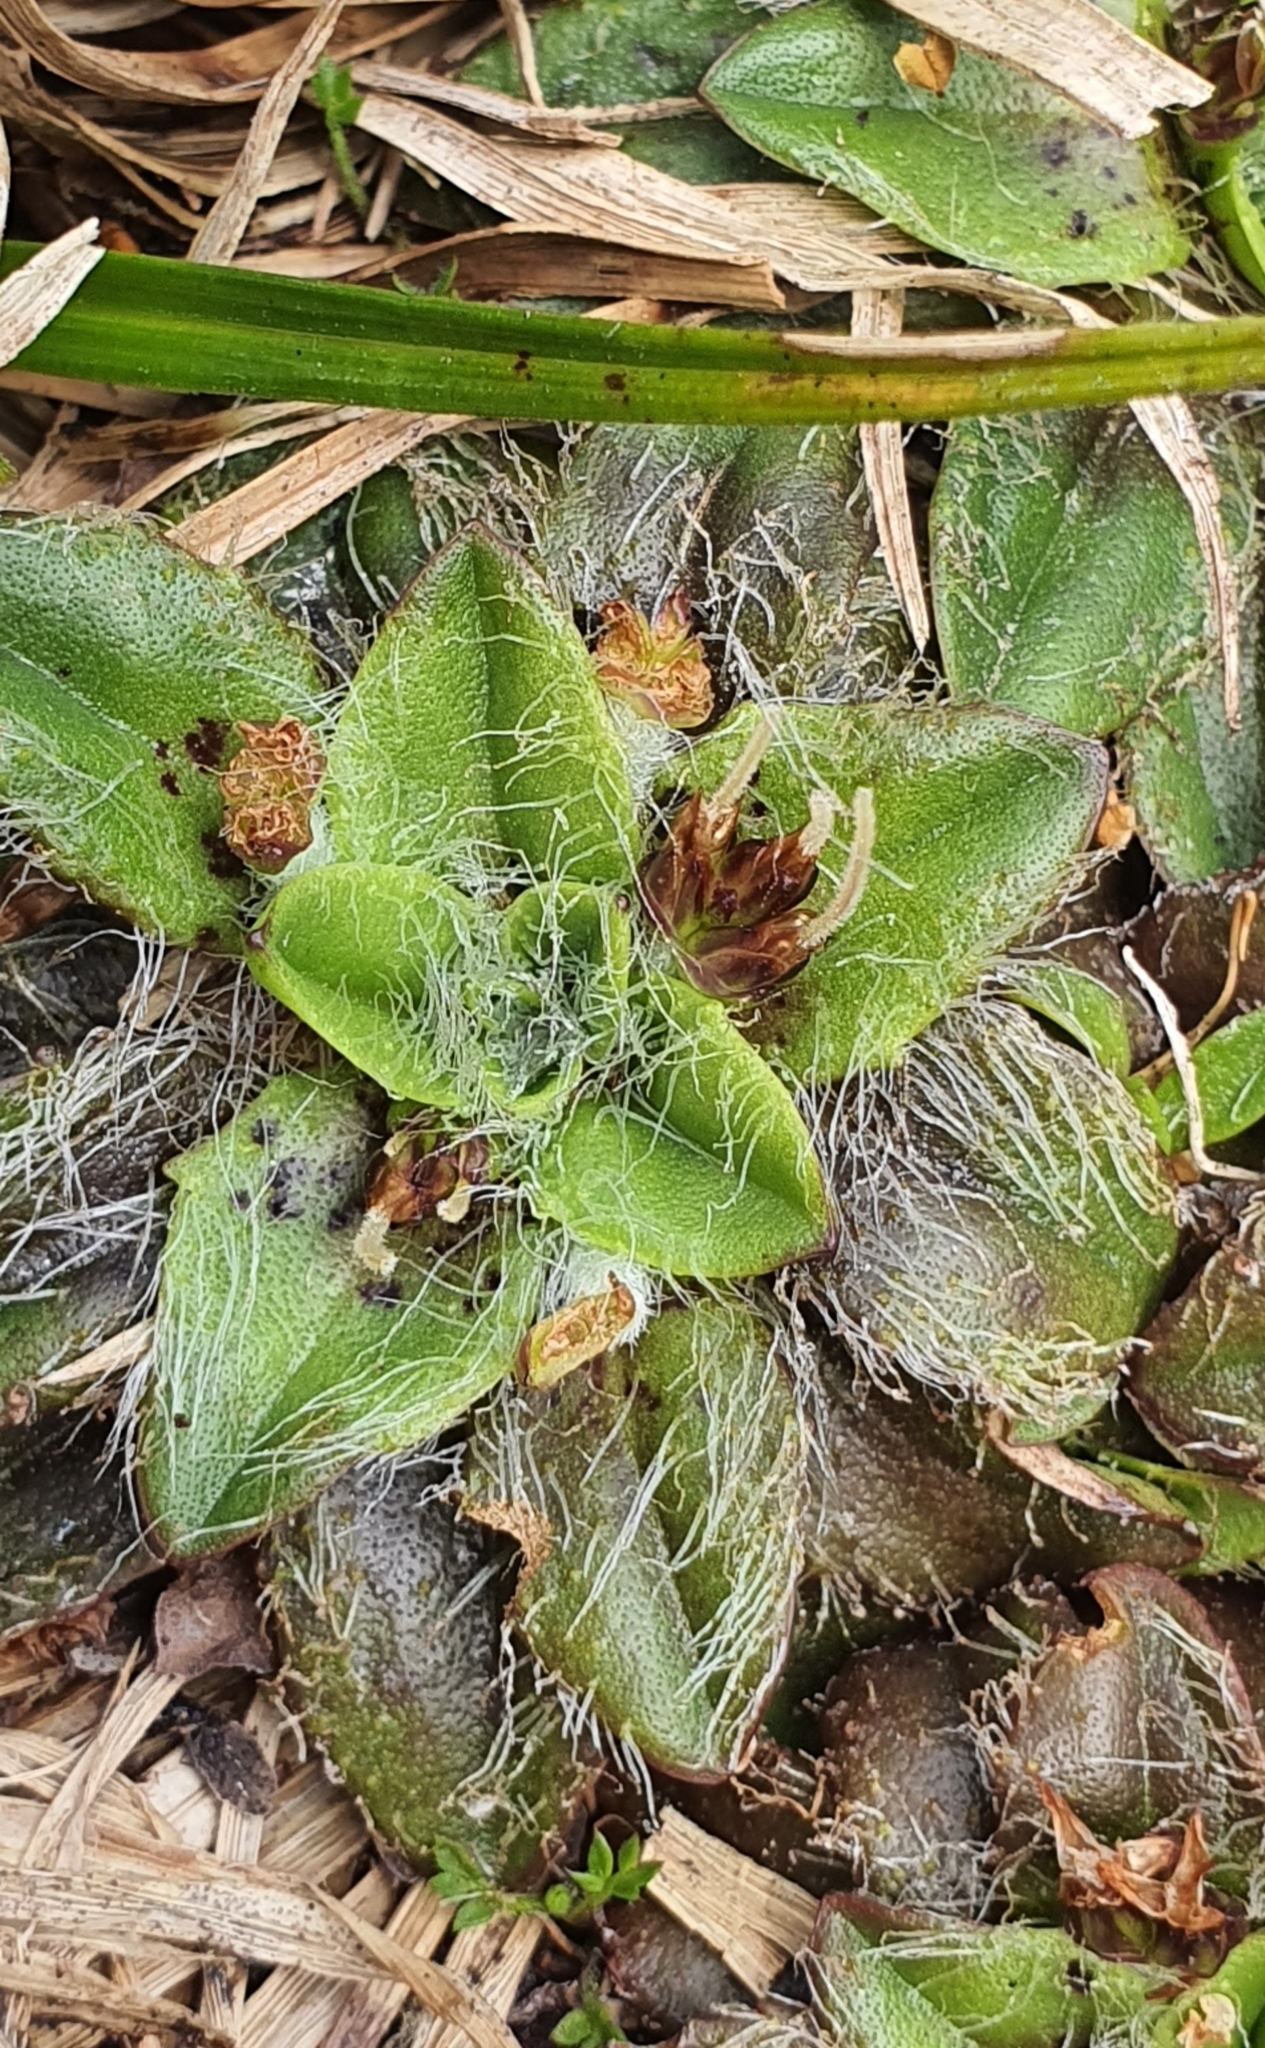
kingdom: Plantae
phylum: Tracheophyta
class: Magnoliopsida
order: Lamiales
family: Plantaginaceae
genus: Plantago
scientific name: Plantago lanigera
